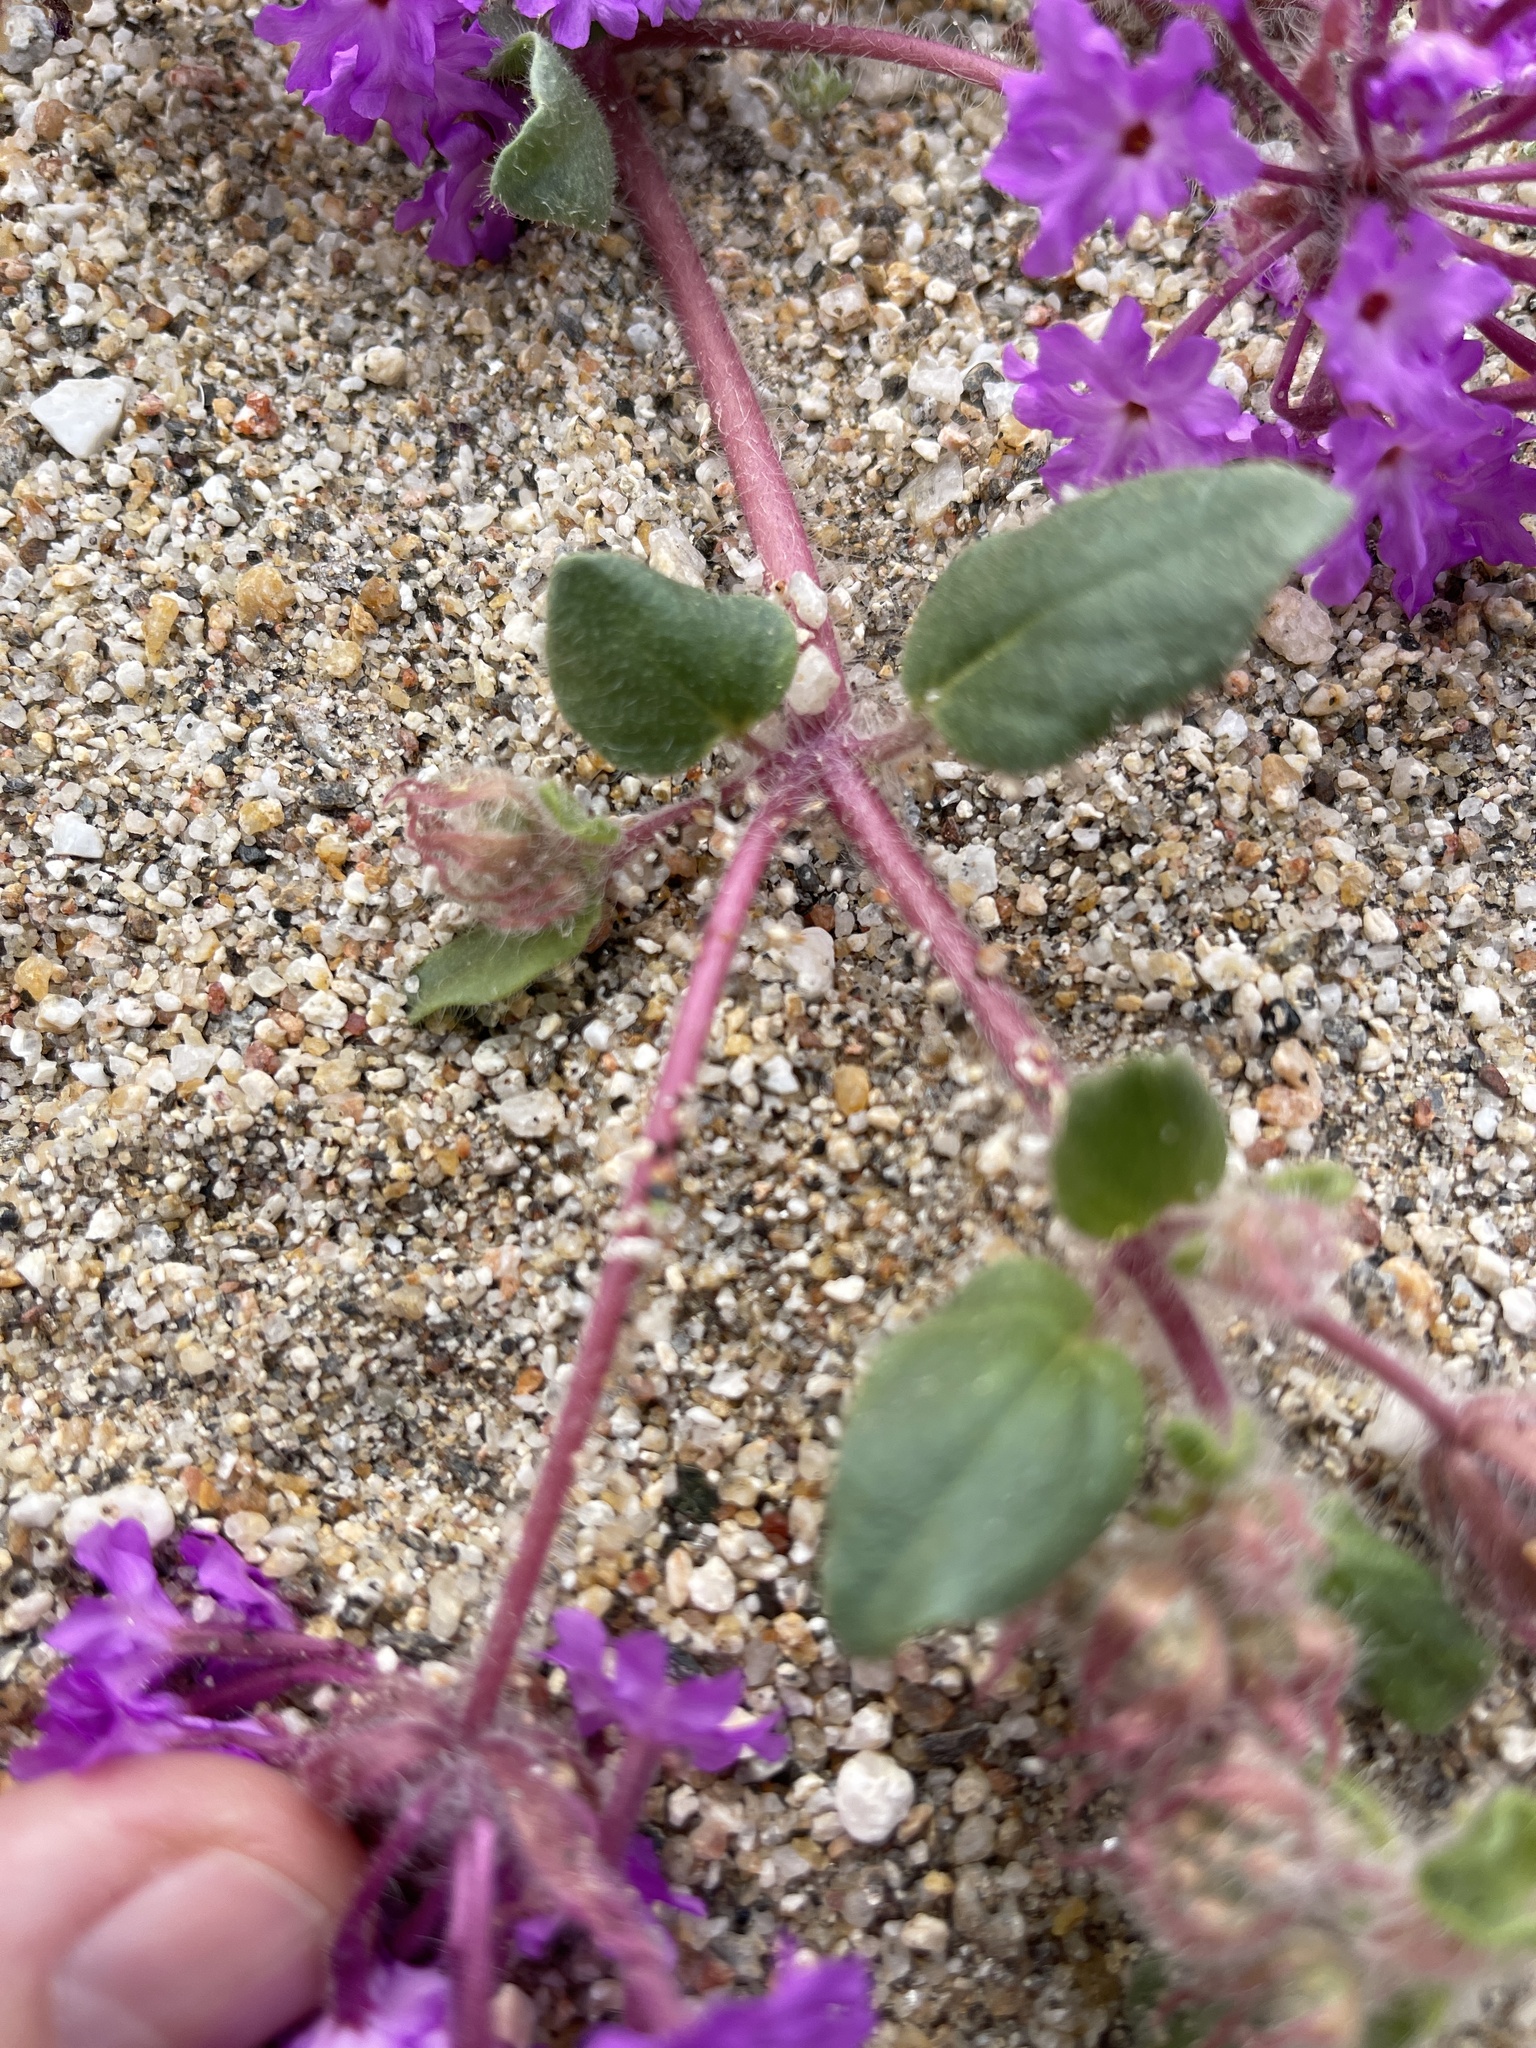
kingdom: Plantae
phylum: Tracheophyta
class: Magnoliopsida
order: Caryophyllales
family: Nyctaginaceae
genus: Abronia
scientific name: Abronia villosa
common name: Desert sand-verbena
